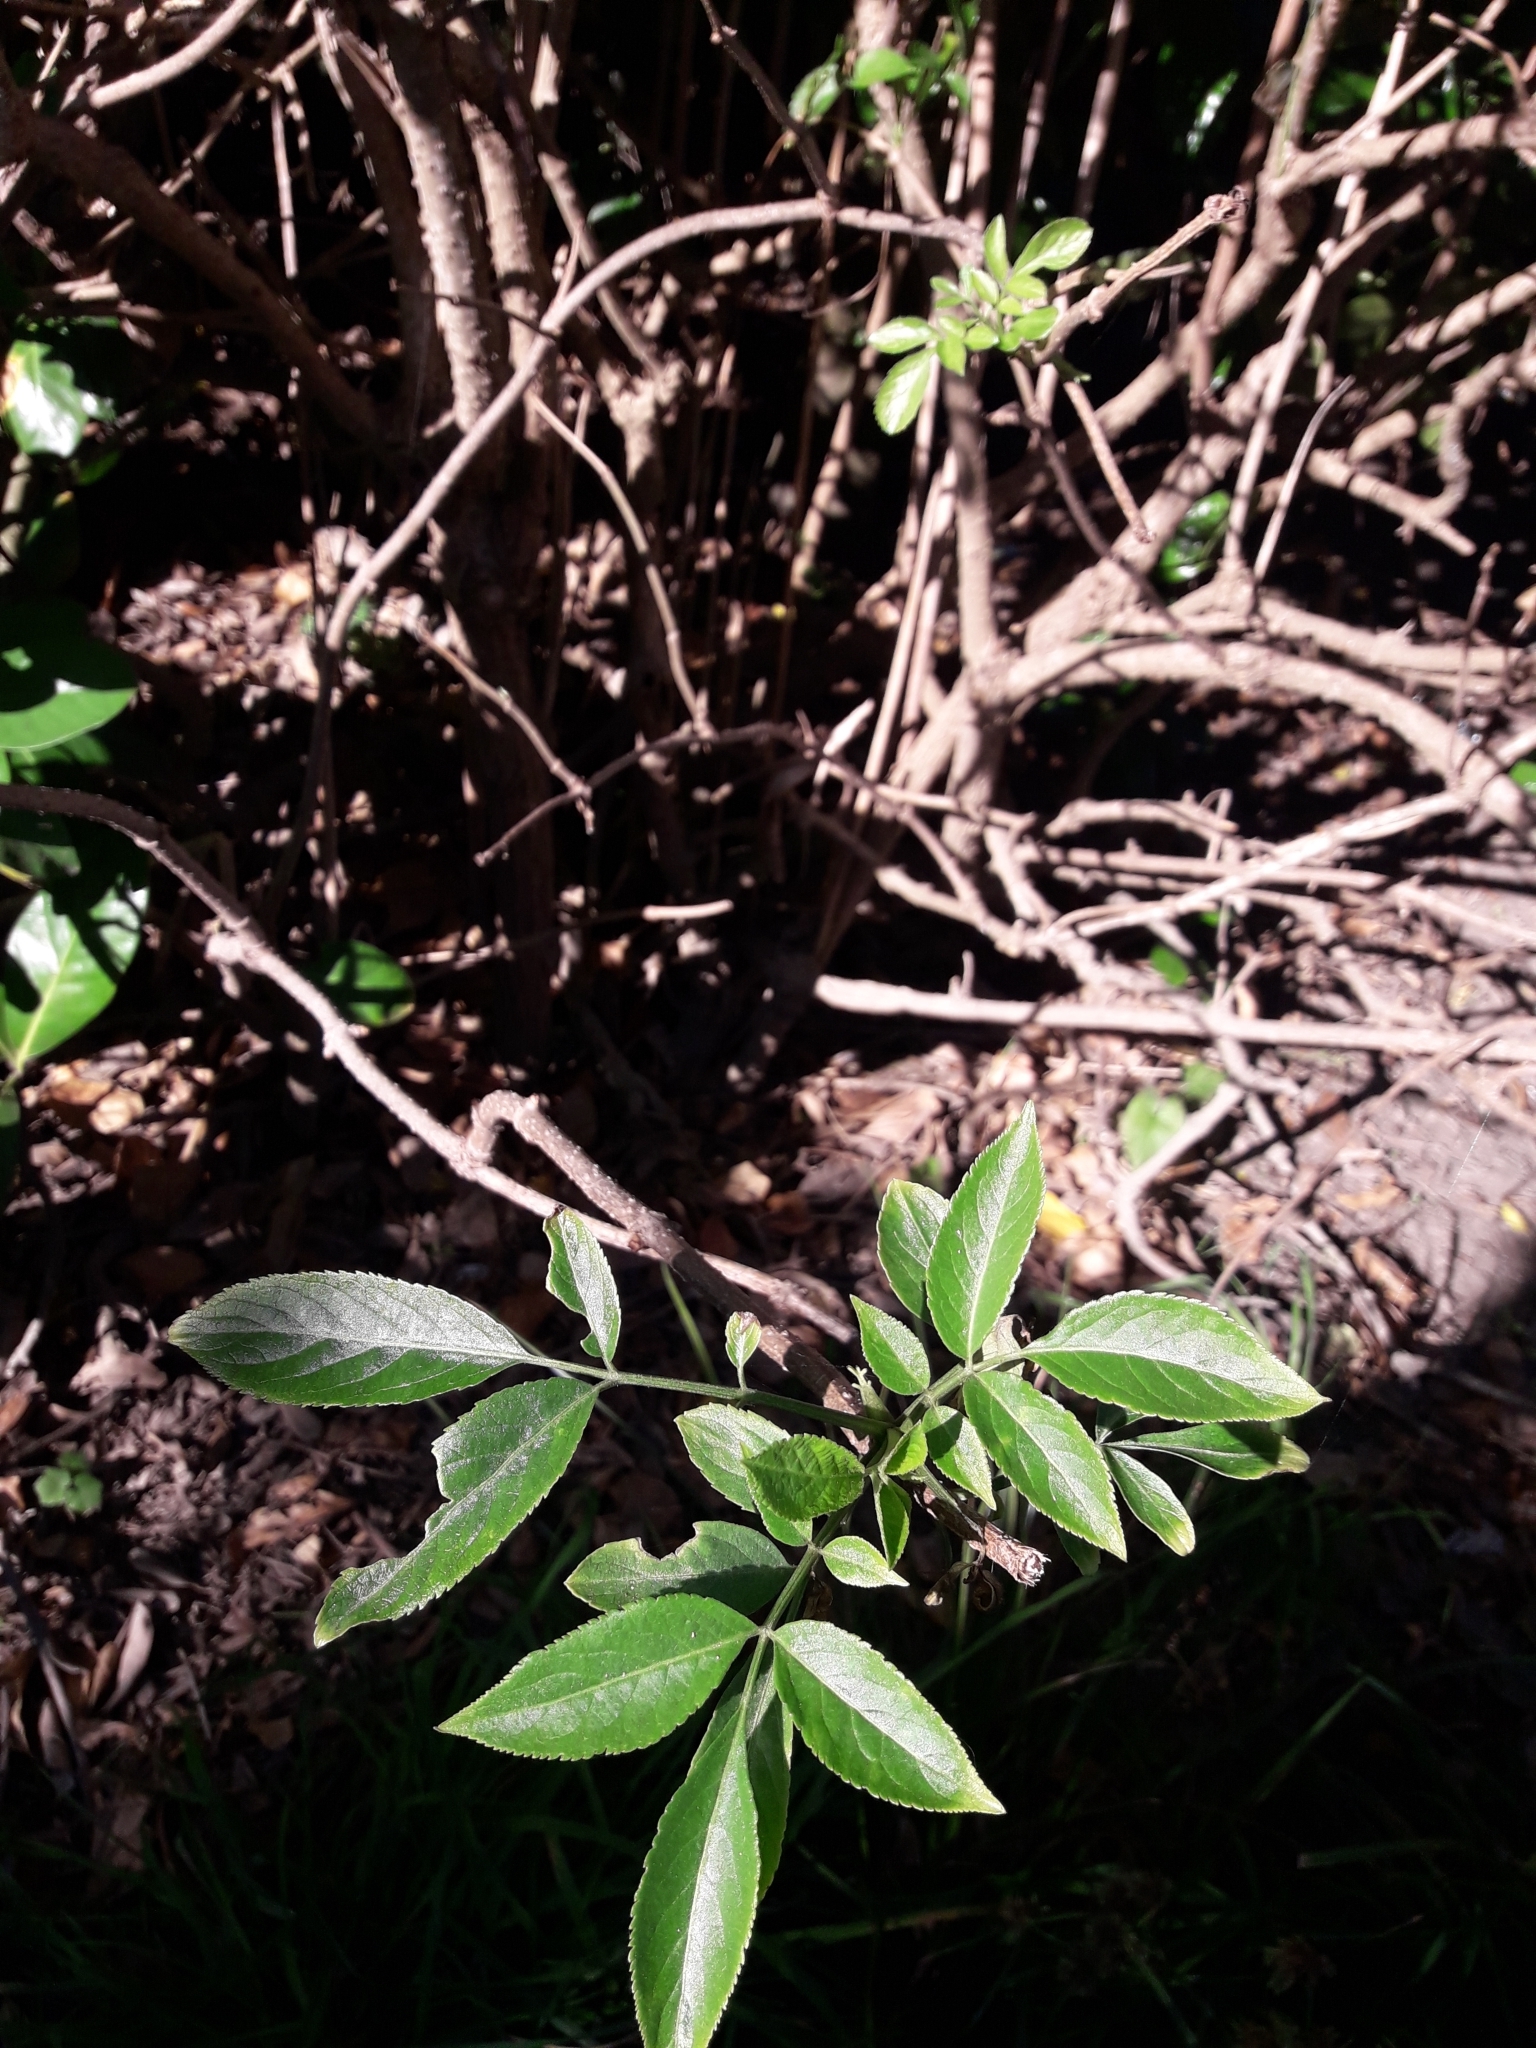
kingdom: Plantae
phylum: Tracheophyta
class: Magnoliopsida
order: Dipsacales
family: Viburnaceae
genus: Sambucus
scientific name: Sambucus nigra
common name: Elder
